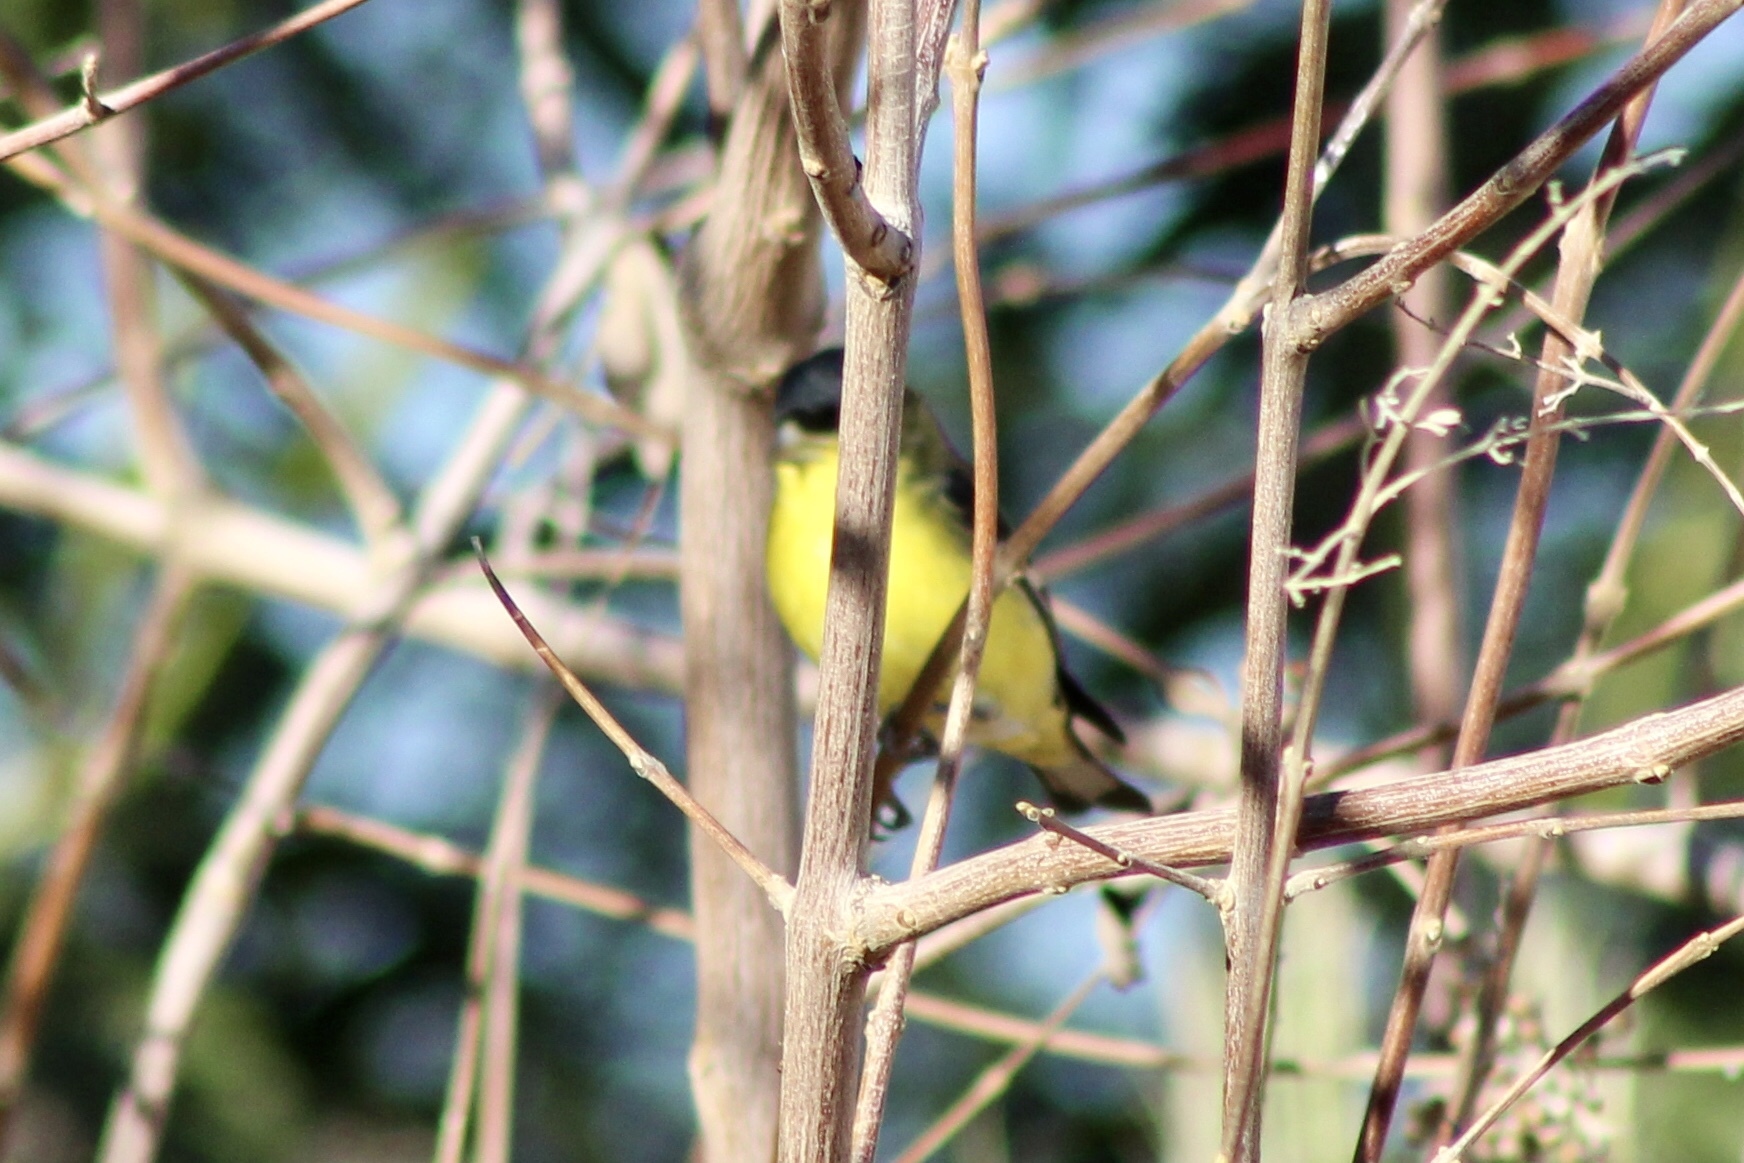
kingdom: Animalia
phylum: Chordata
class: Aves
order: Passeriformes
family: Fringillidae
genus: Spinus
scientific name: Spinus psaltria
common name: Lesser goldfinch
